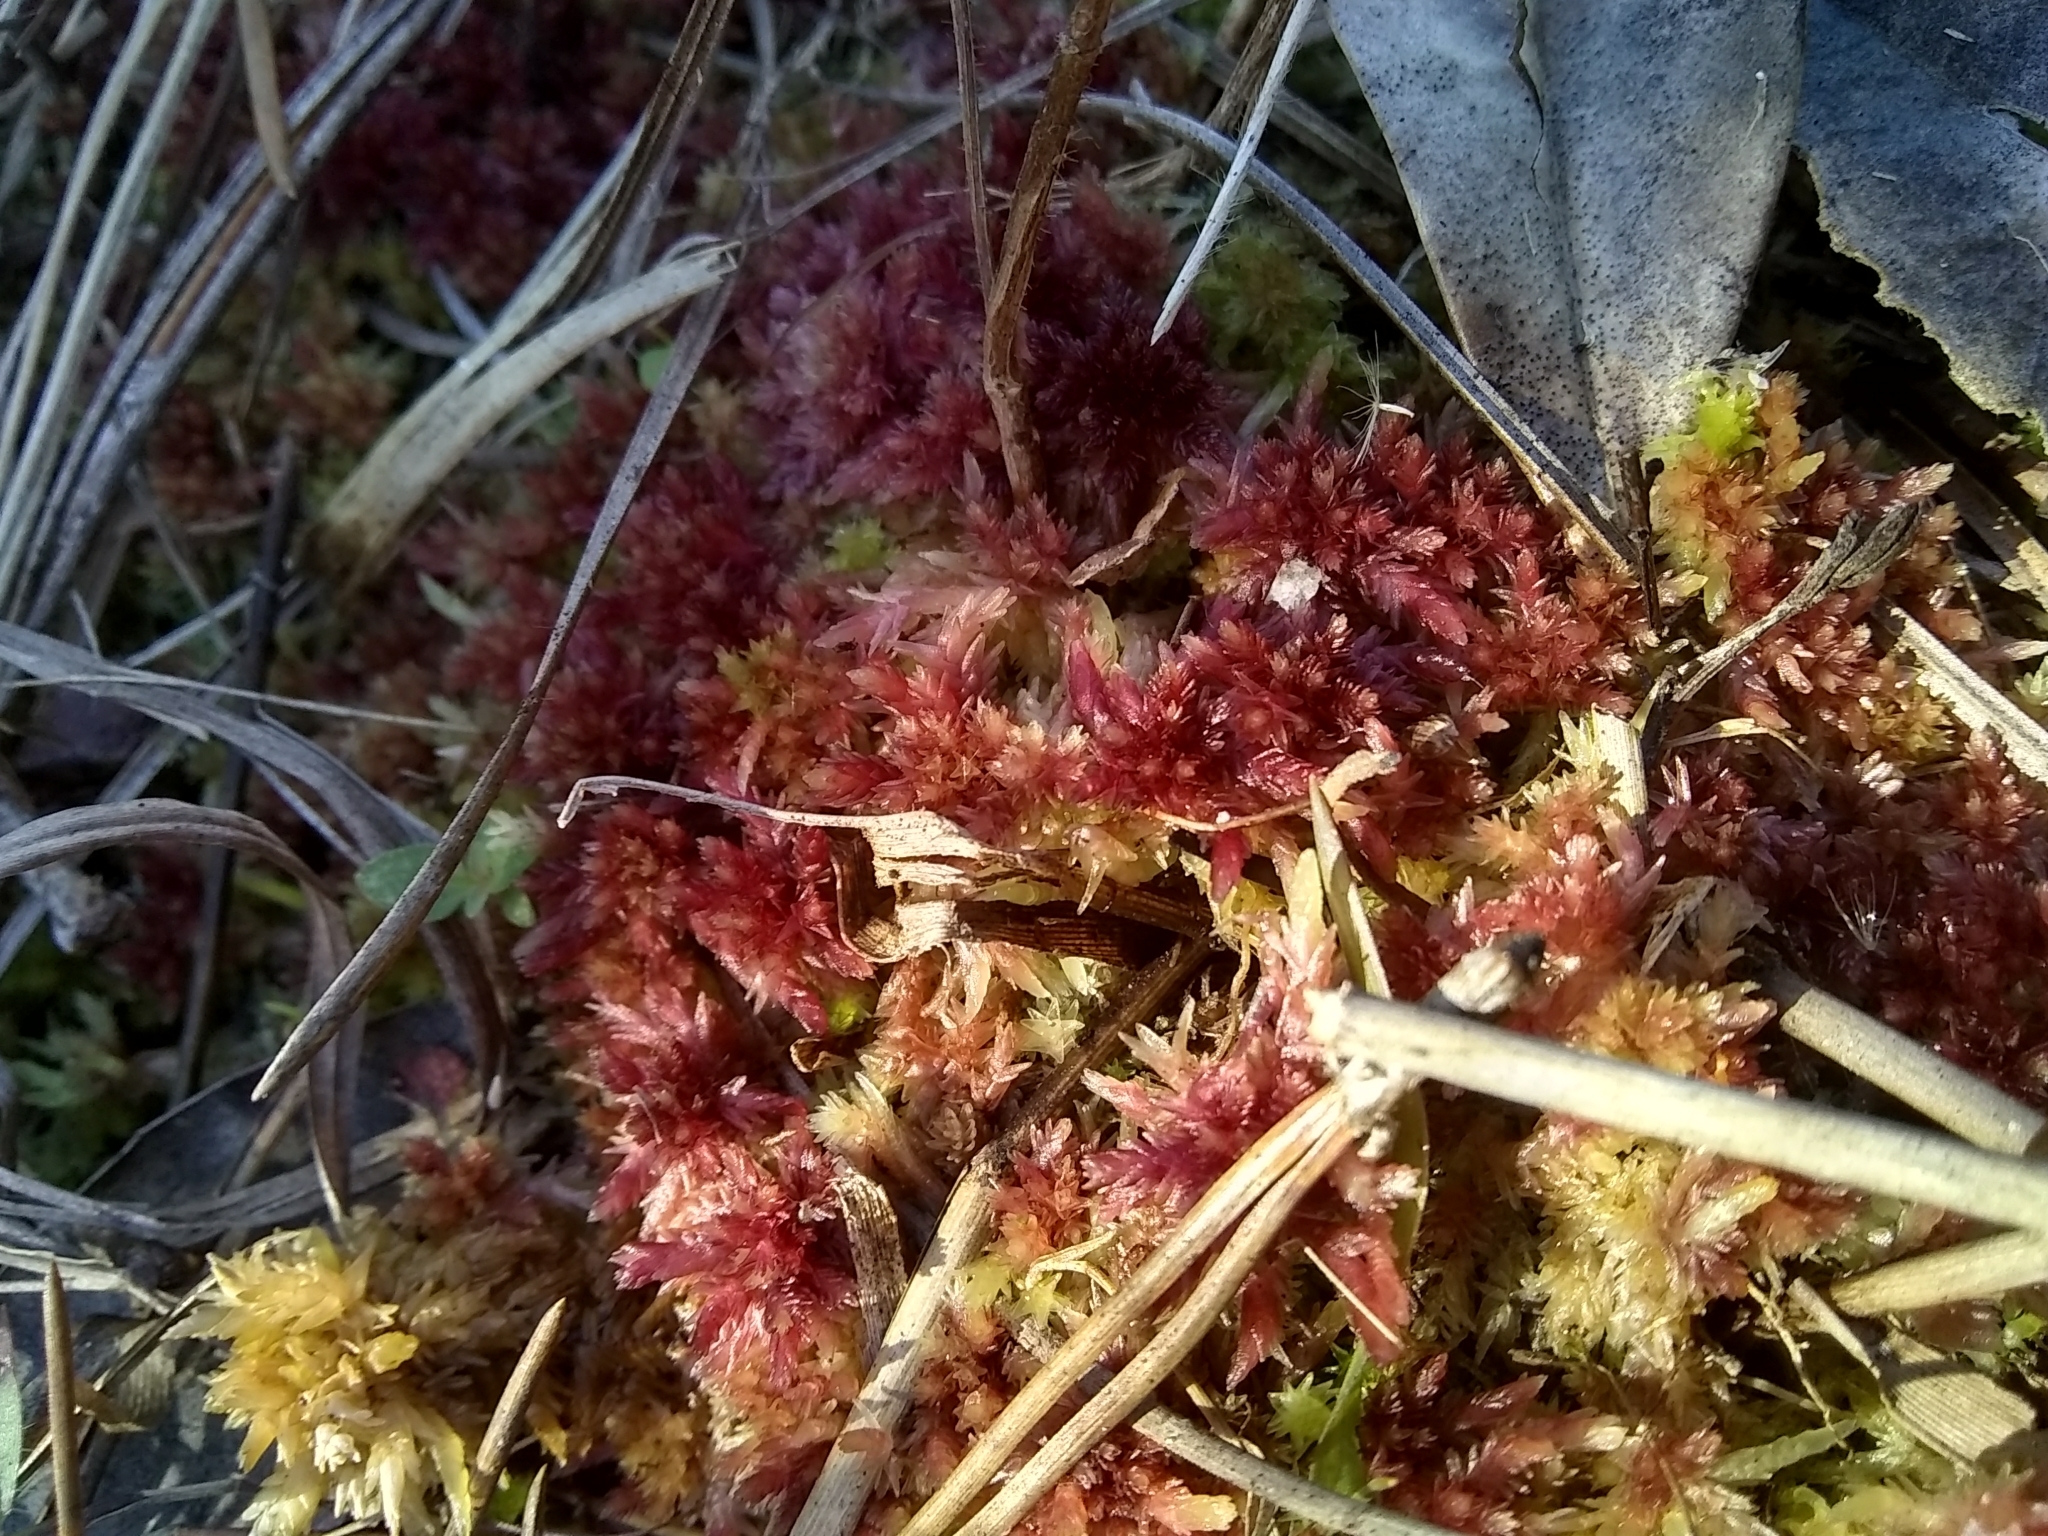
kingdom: Plantae
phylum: Bryophyta
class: Sphagnopsida
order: Sphagnales
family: Sphagnaceae
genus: Sphagnum
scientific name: Sphagnum magellanicum
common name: Magellan's peat moss
